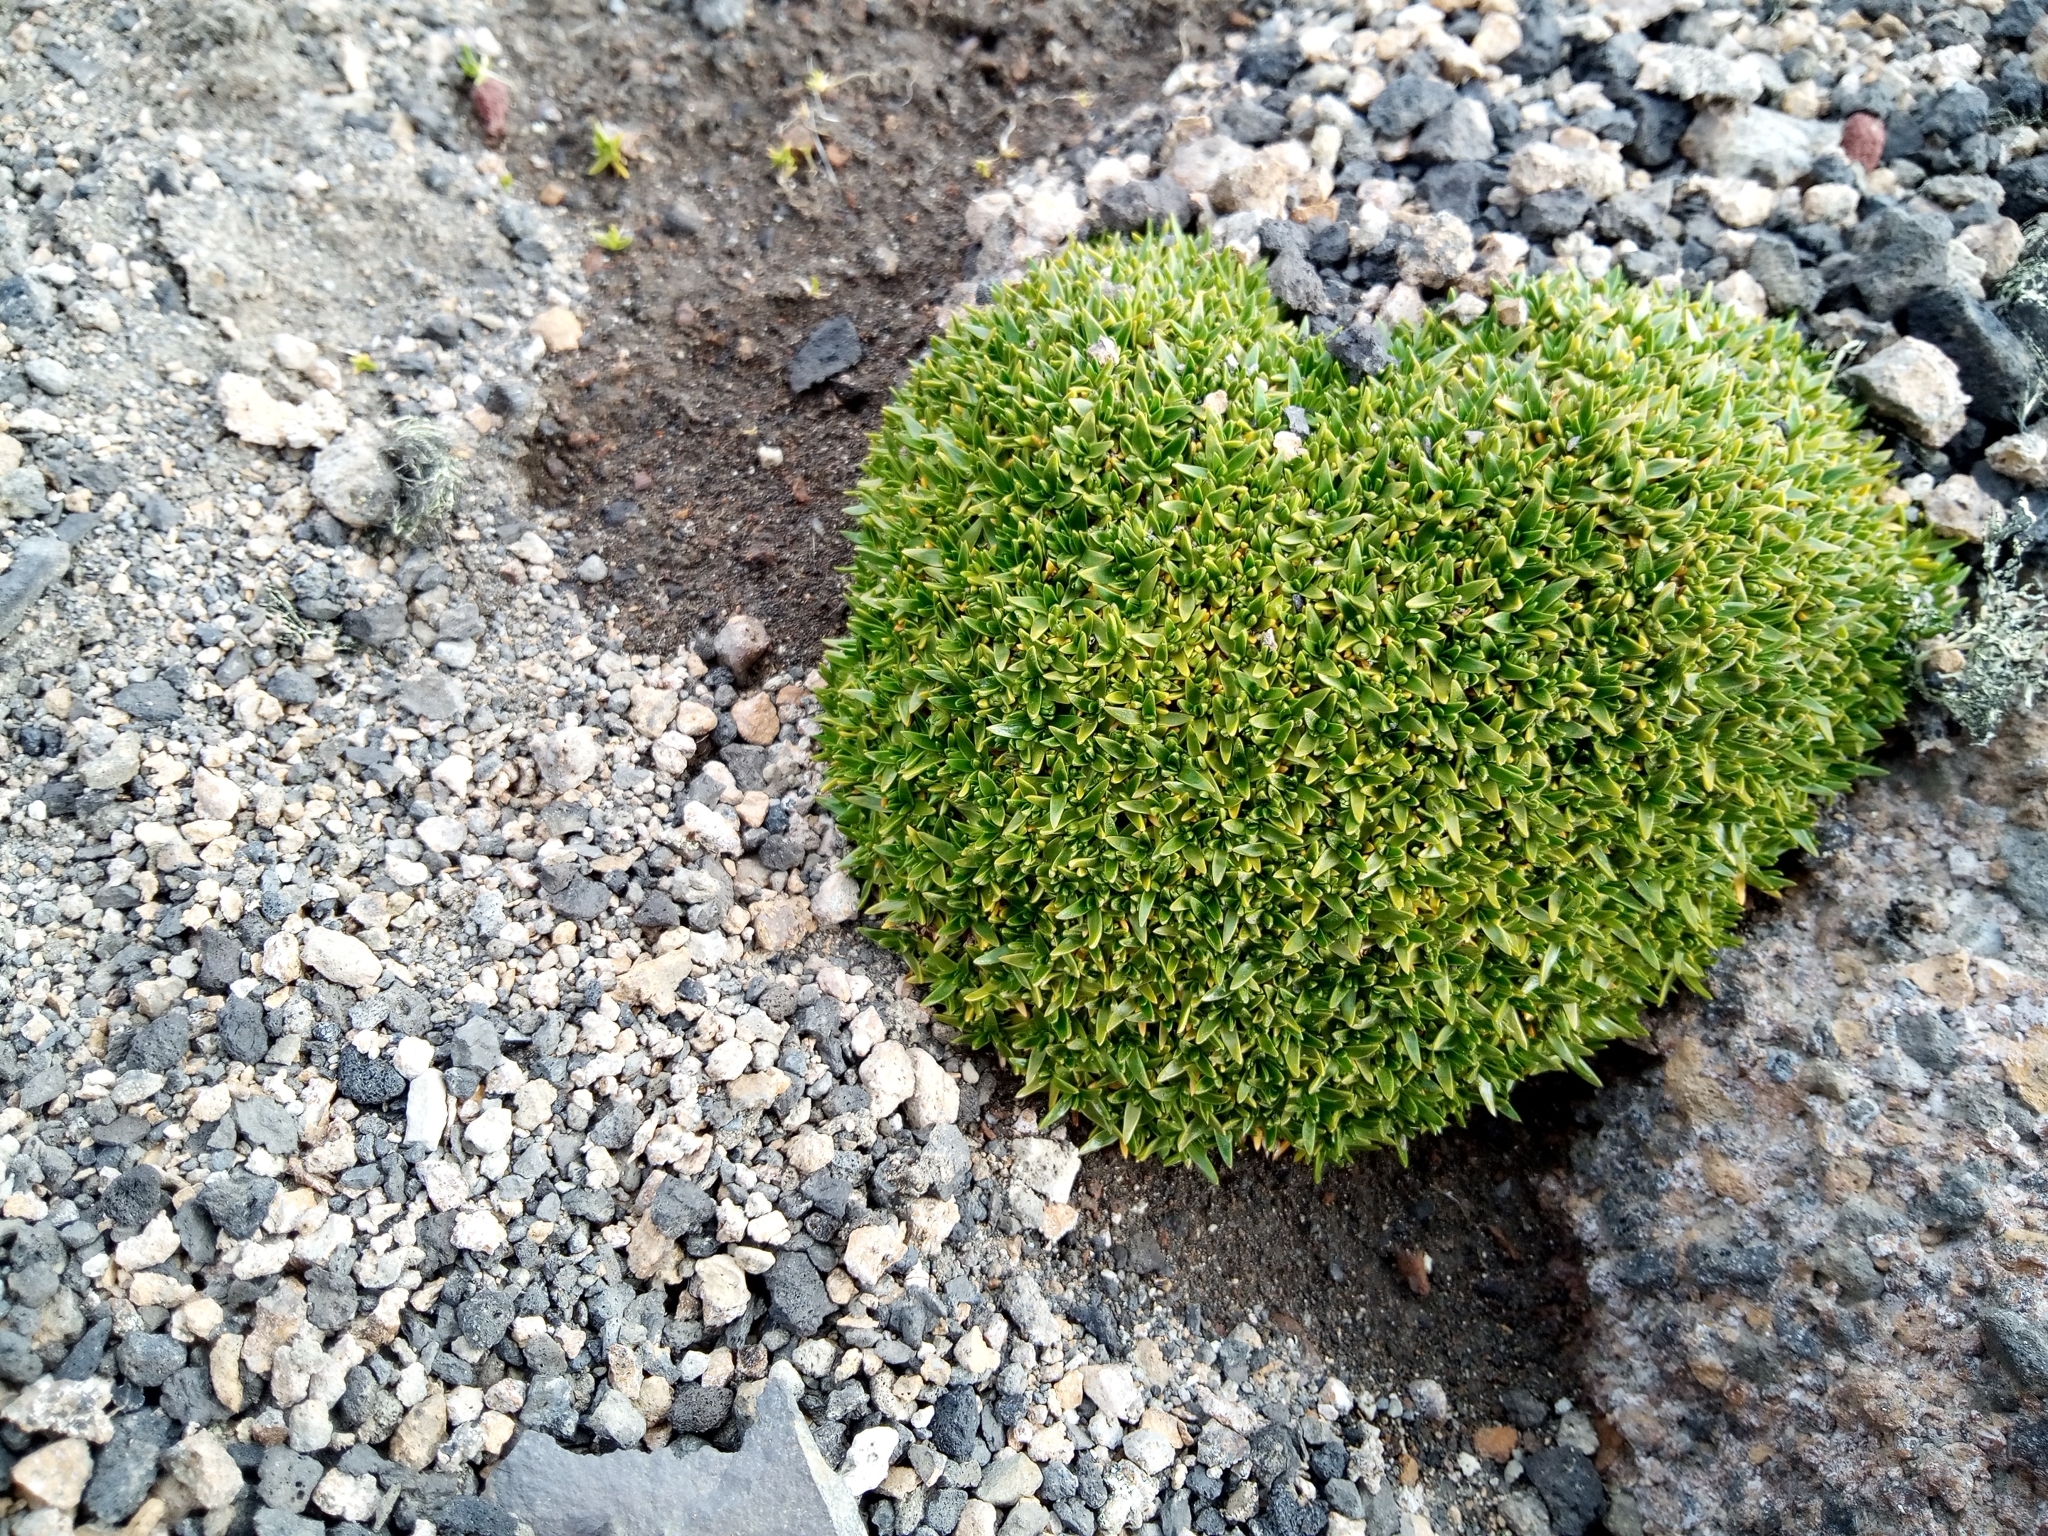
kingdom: Plantae
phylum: Tracheophyta
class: Magnoliopsida
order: Caryophyllales
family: Caryophyllaceae
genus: Colobanthus
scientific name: Colobanthus quitensis
